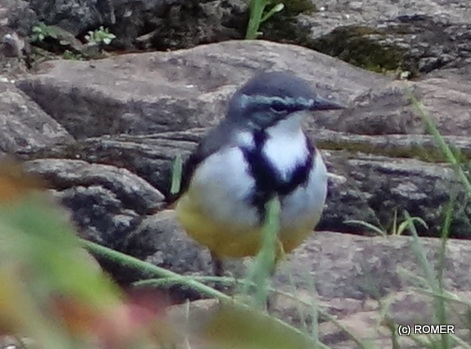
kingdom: Animalia
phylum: Chordata
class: Aves
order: Passeriformes
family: Motacillidae
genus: Motacilla
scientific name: Motacilla flaviventris
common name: Madagascar wagtail
